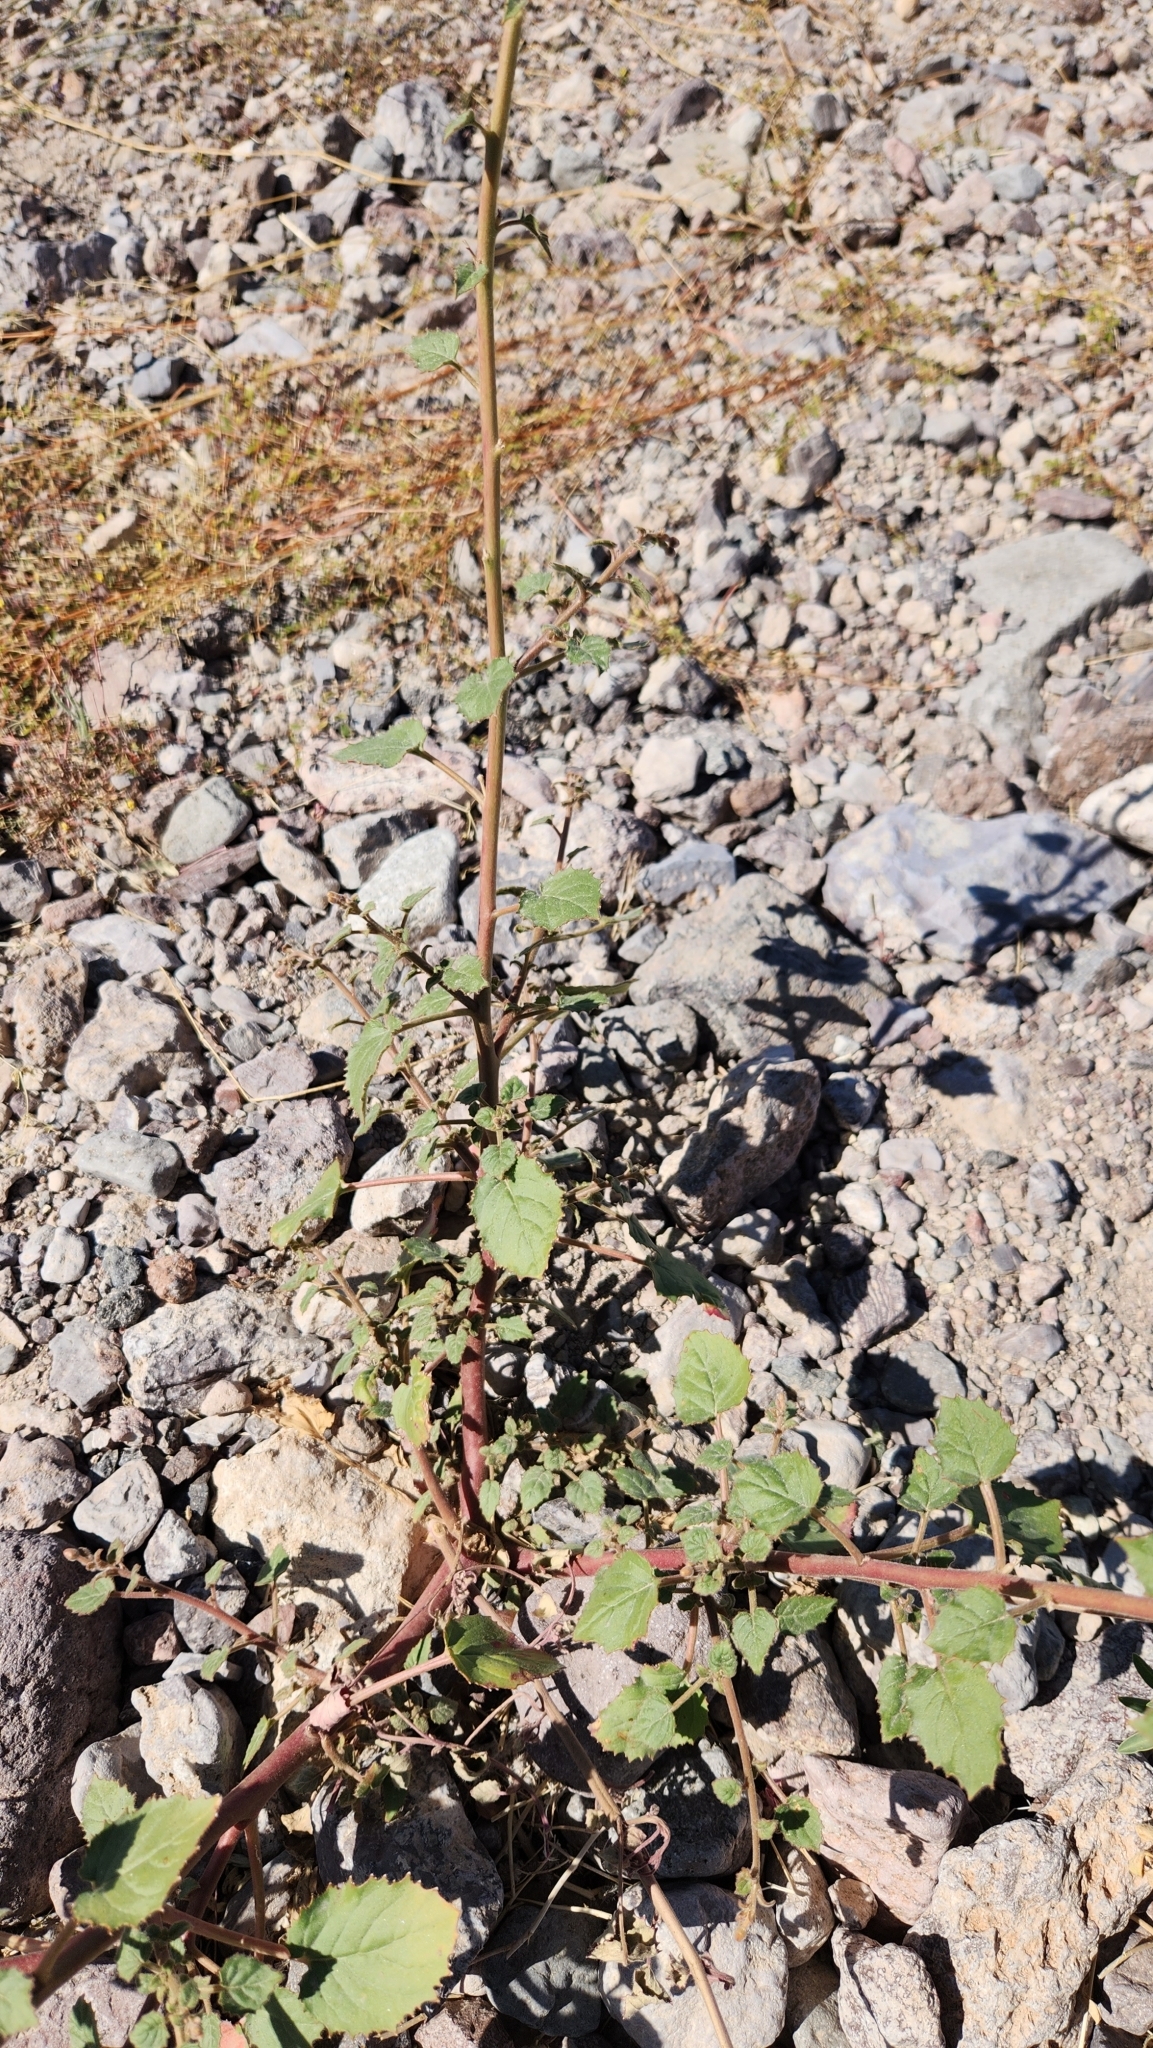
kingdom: Plantae
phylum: Tracheophyta
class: Magnoliopsida
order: Myrtales
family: Onagraceae
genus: Chylismia
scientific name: Chylismia cardiophylla
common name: Heartleaf suncup
